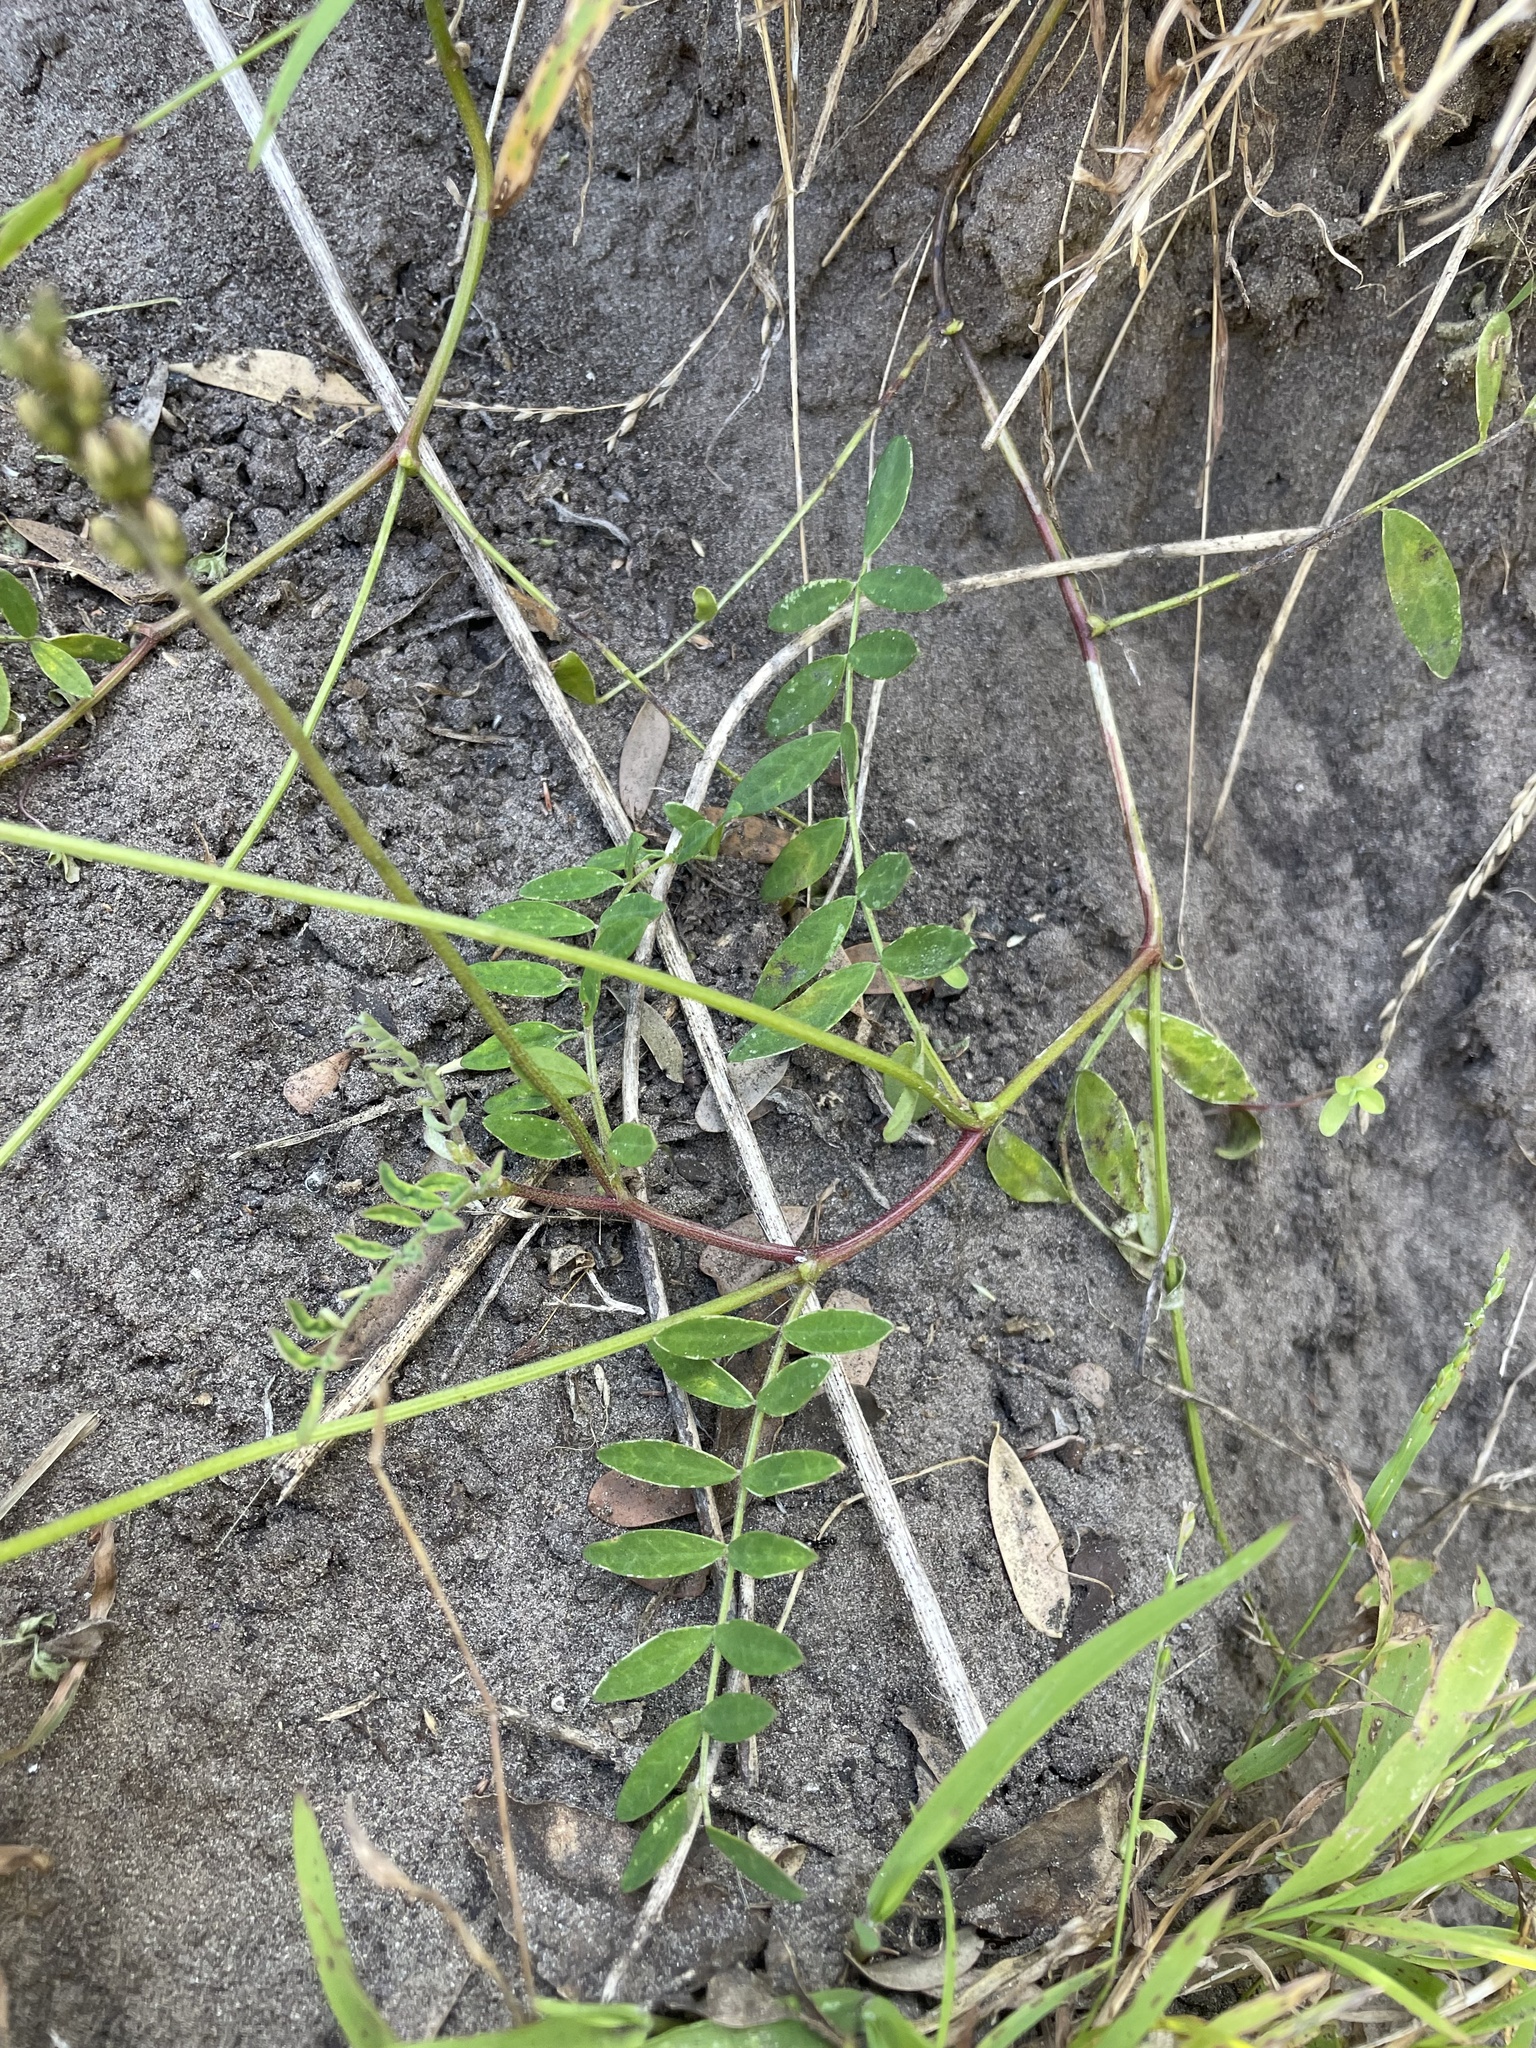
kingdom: Plantae
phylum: Tracheophyta
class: Magnoliopsida
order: Fabales
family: Fabaceae
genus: Swainsona
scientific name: Swainsona lessertiifolia
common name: Bog-pea
